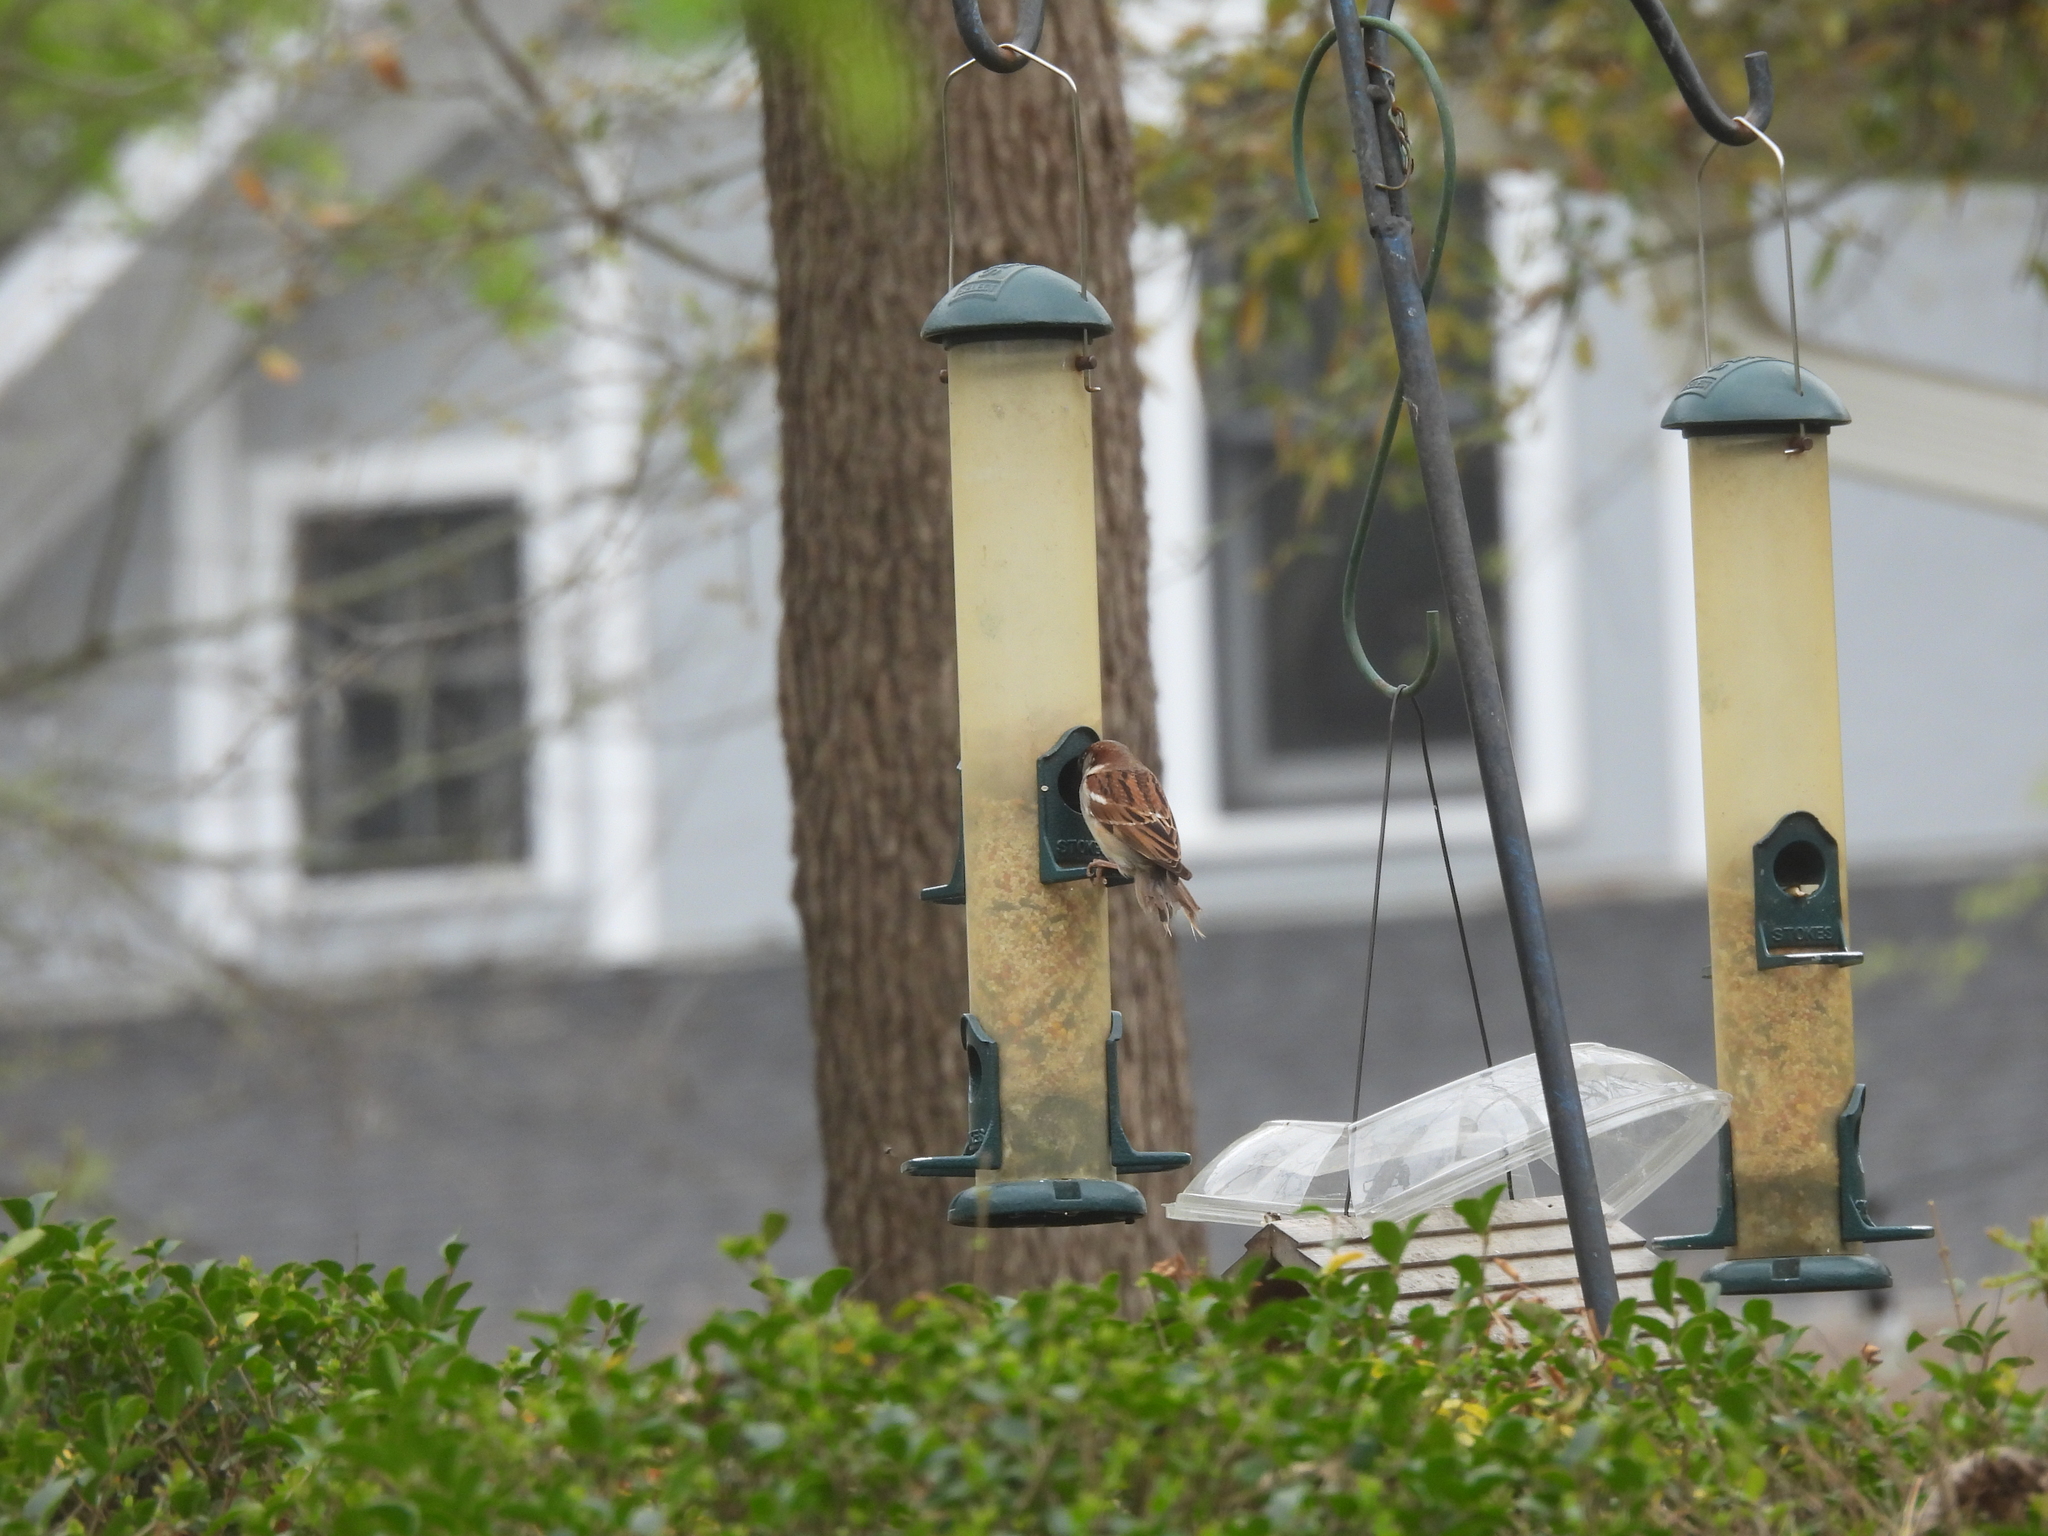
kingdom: Animalia
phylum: Chordata
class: Aves
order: Passeriformes
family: Passeridae
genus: Passer
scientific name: Passer domesticus
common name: House sparrow
